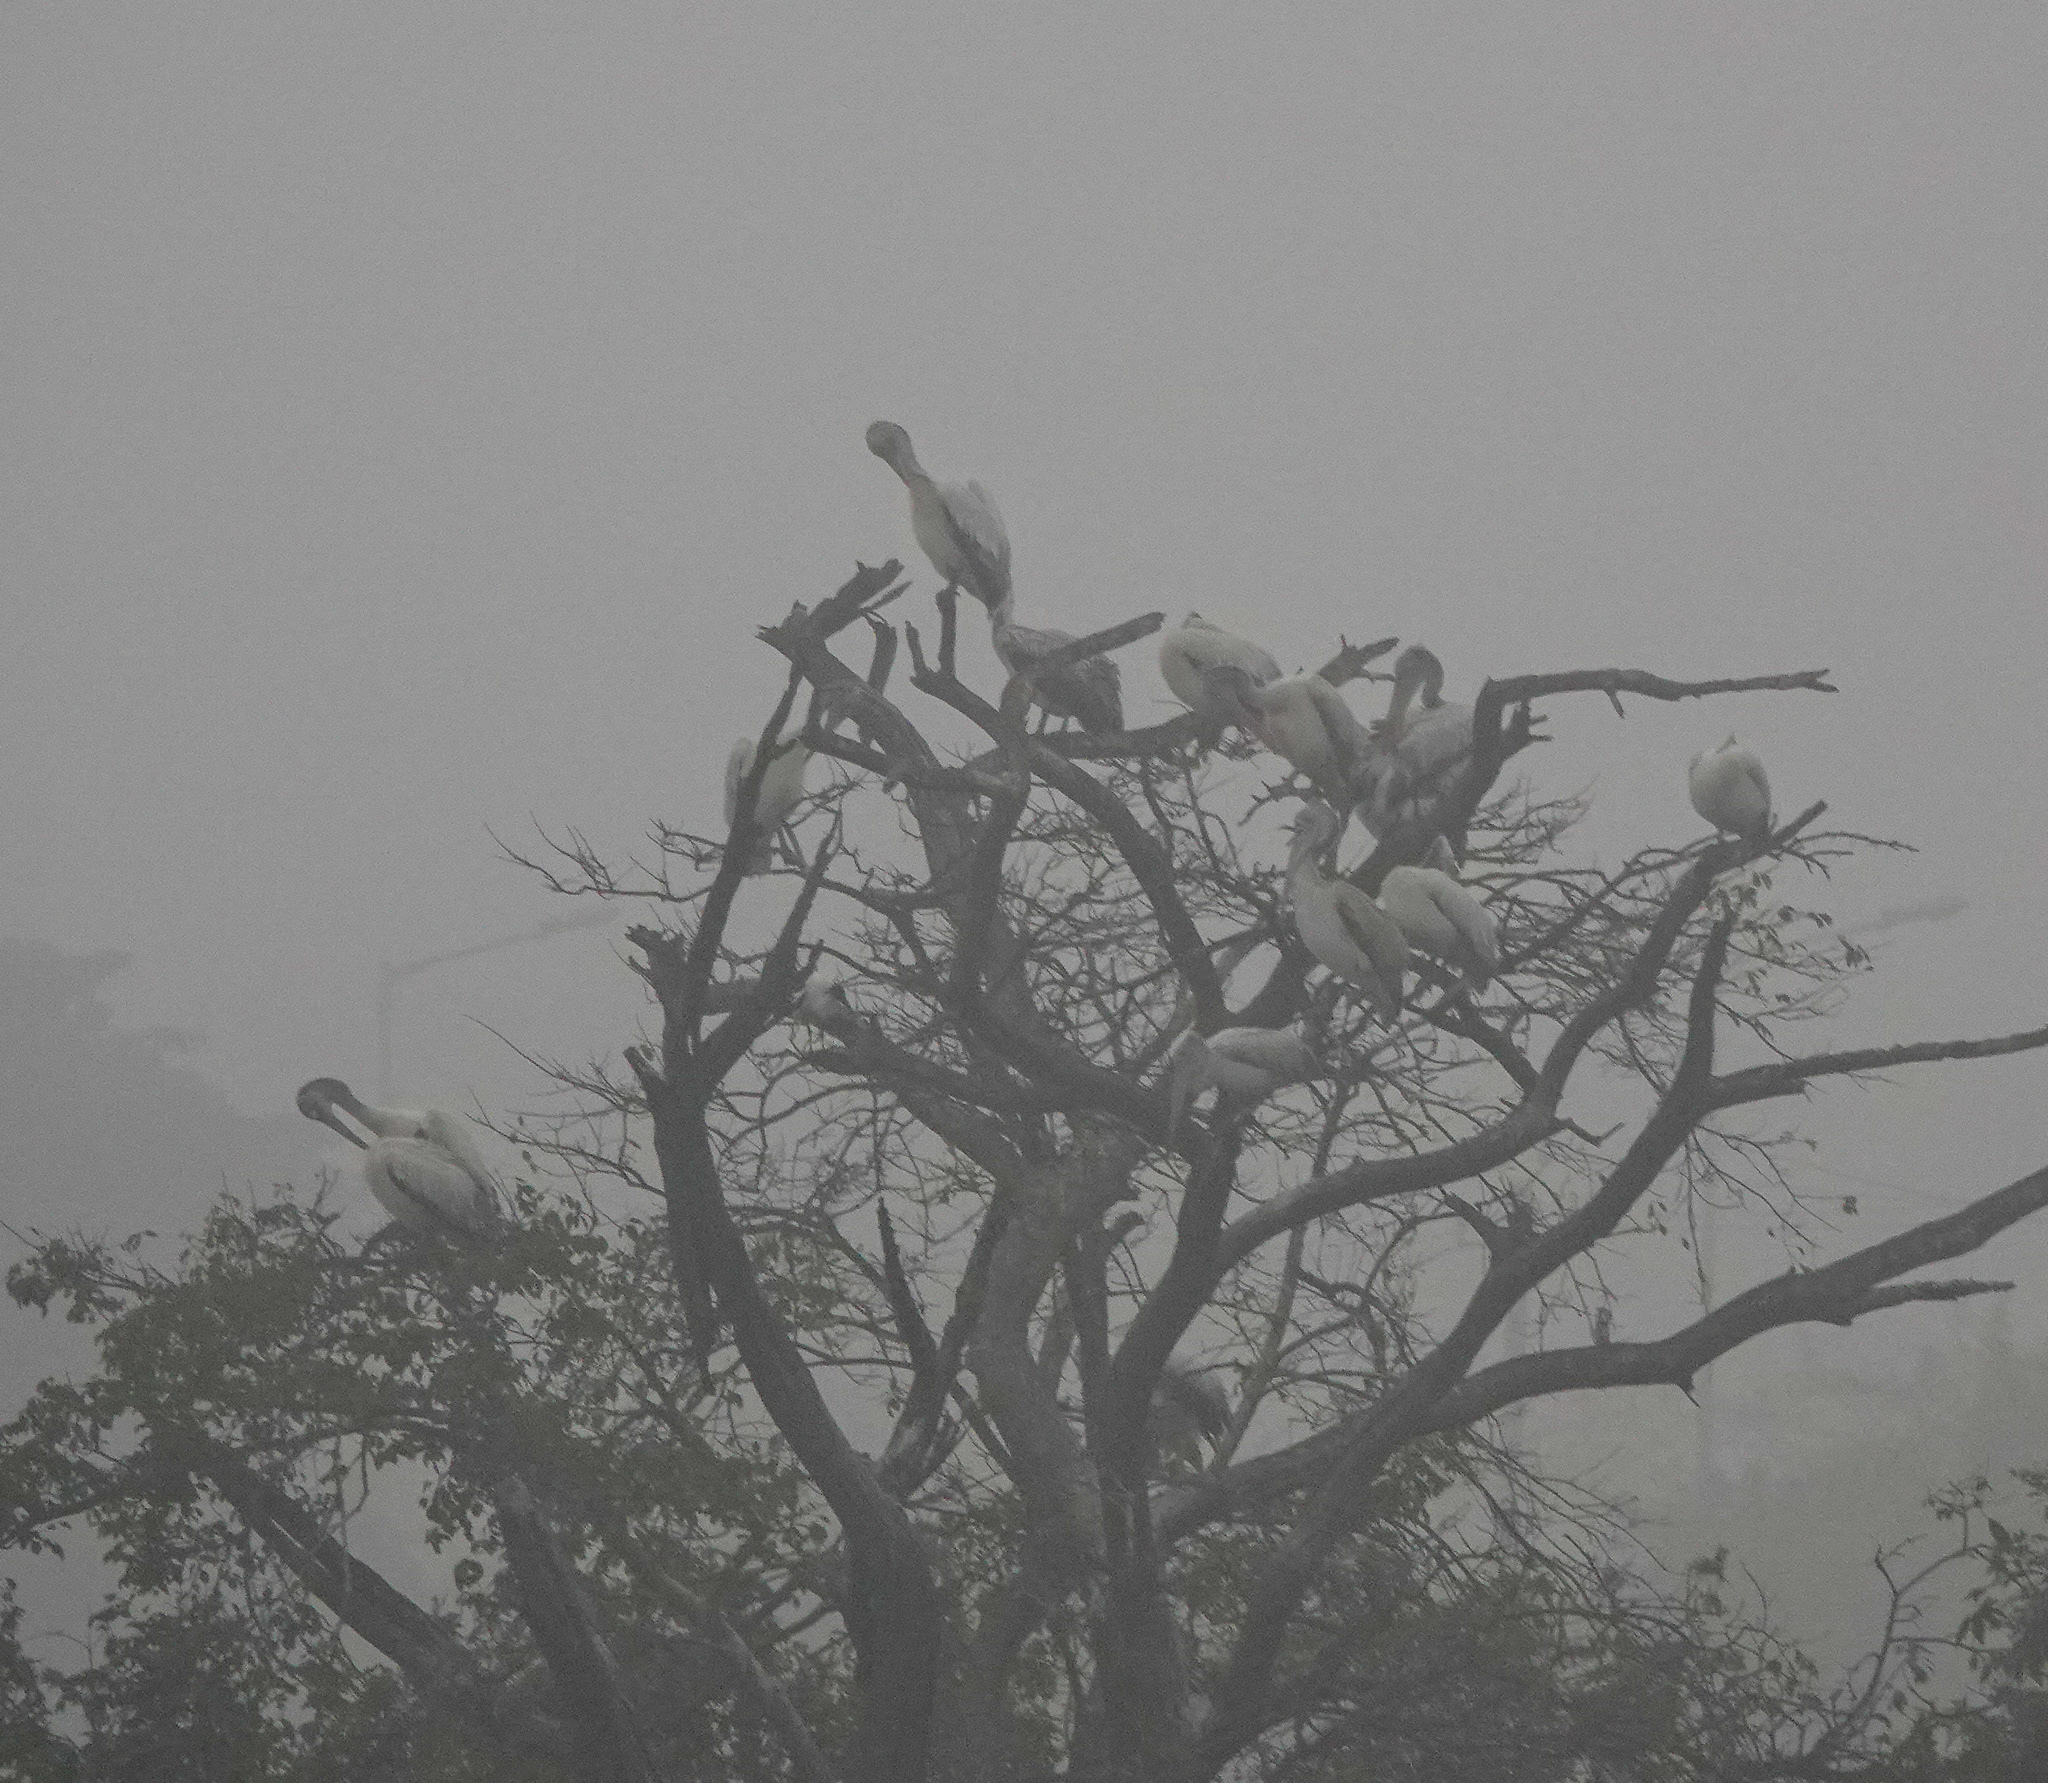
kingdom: Animalia
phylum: Chordata
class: Aves
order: Ciconiiformes
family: Ciconiidae
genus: Mycteria
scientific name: Mycteria leucocephala
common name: Painted stork
